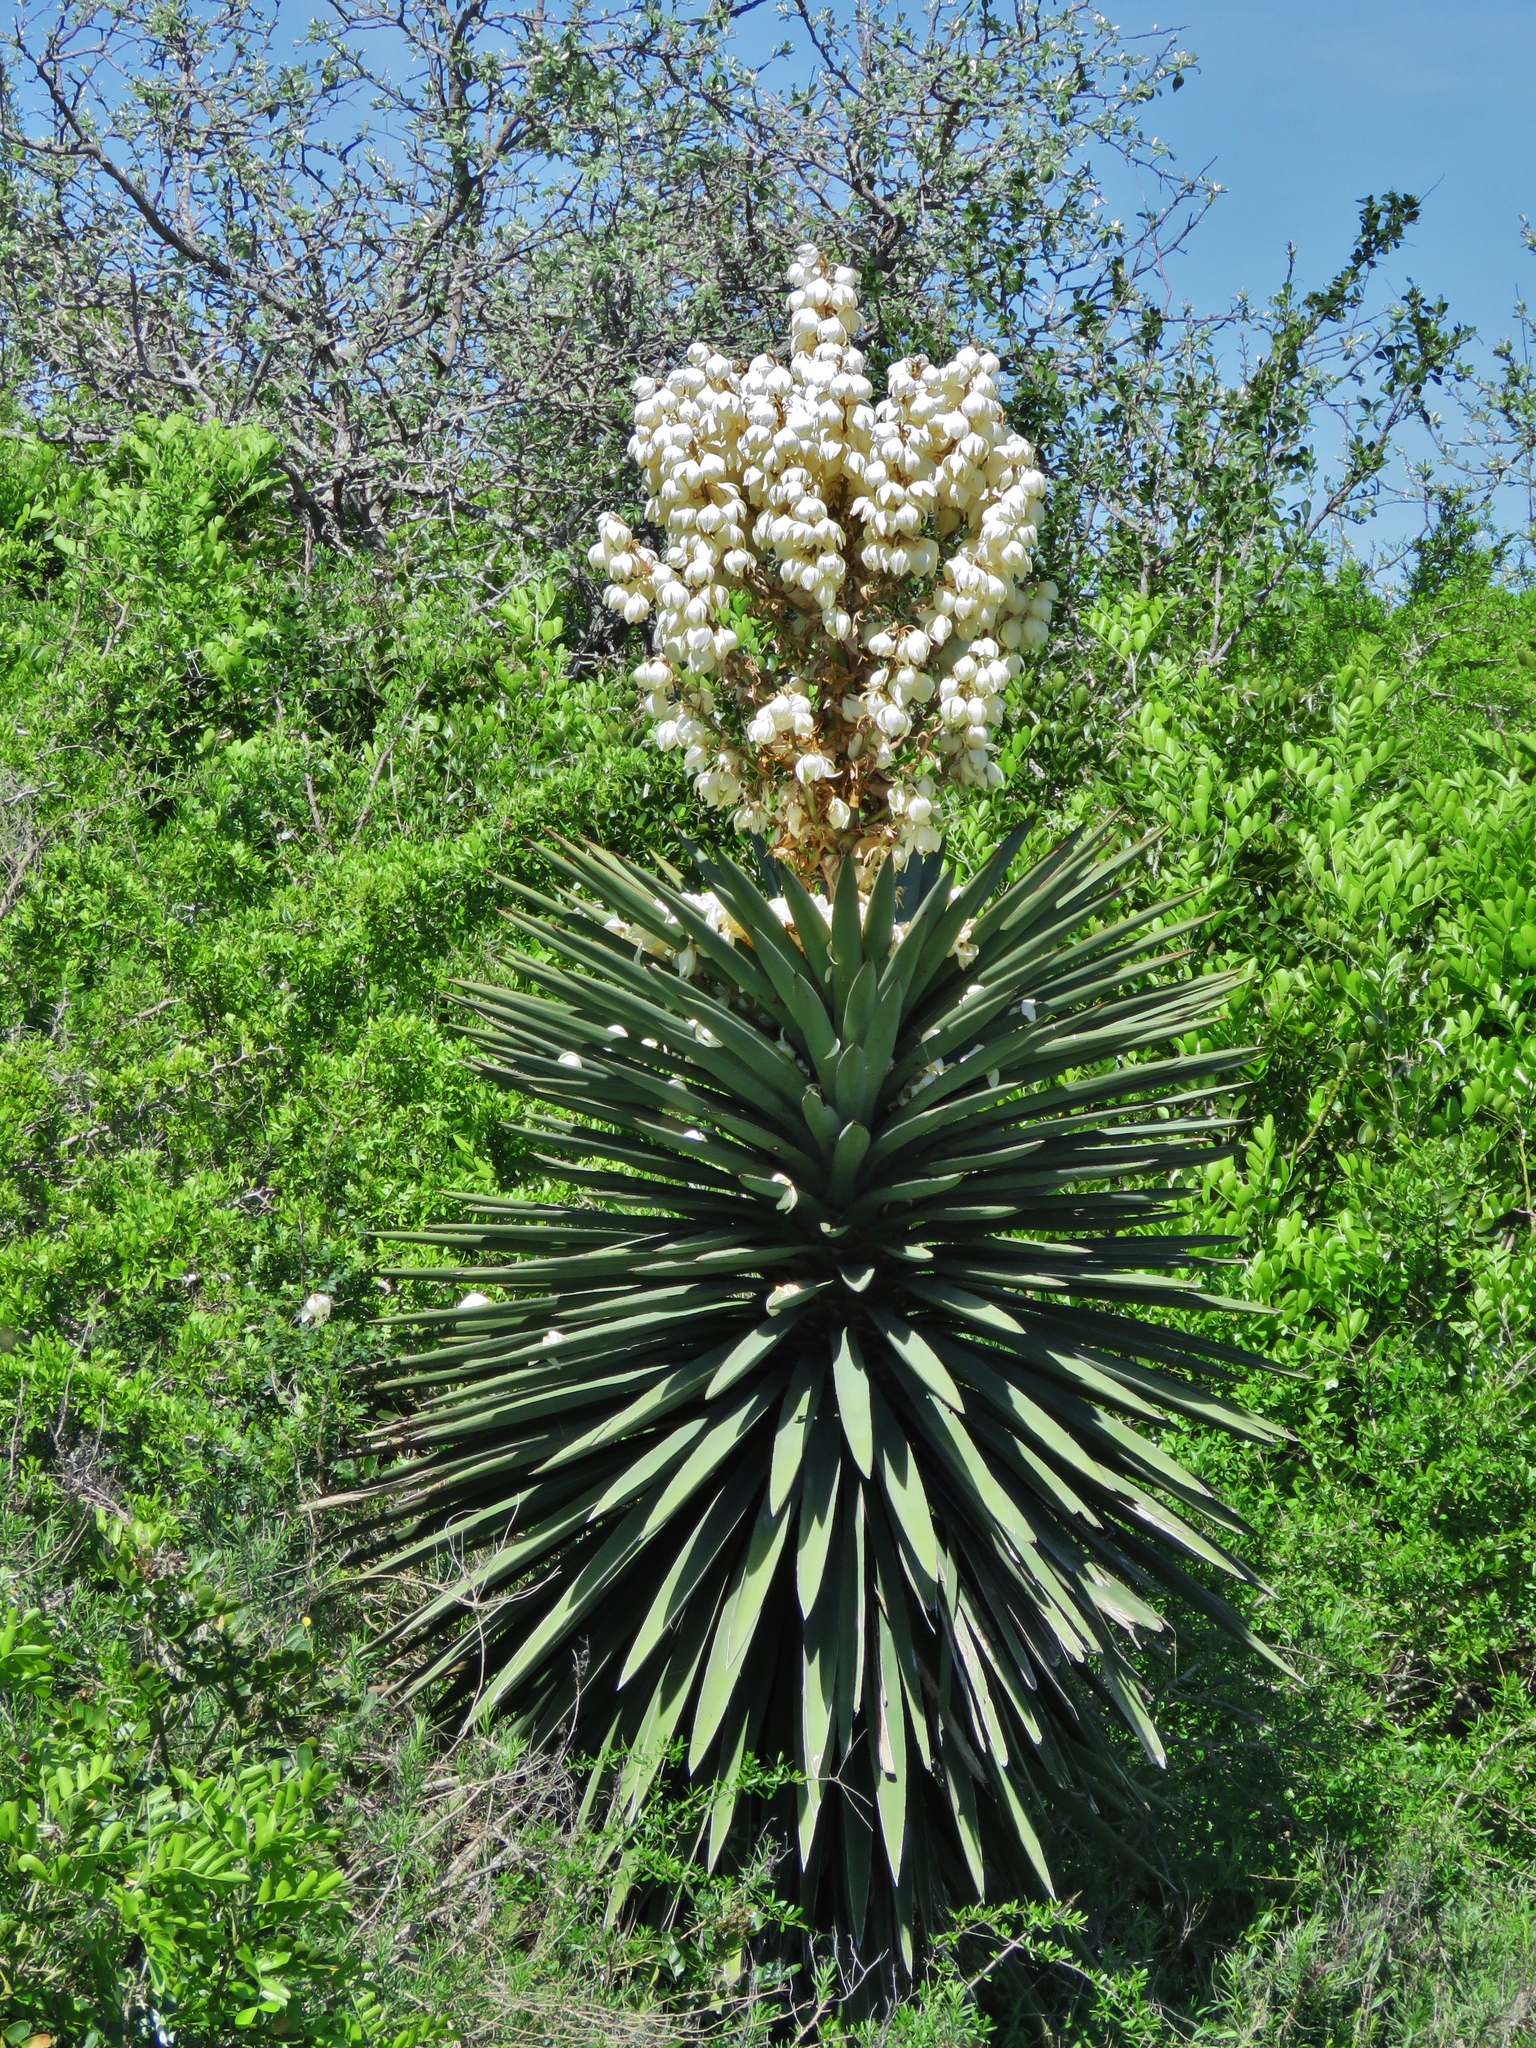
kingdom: Plantae
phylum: Tracheophyta
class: Liliopsida
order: Asparagales
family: Asparagaceae
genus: Yucca
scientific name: Yucca treculiana
